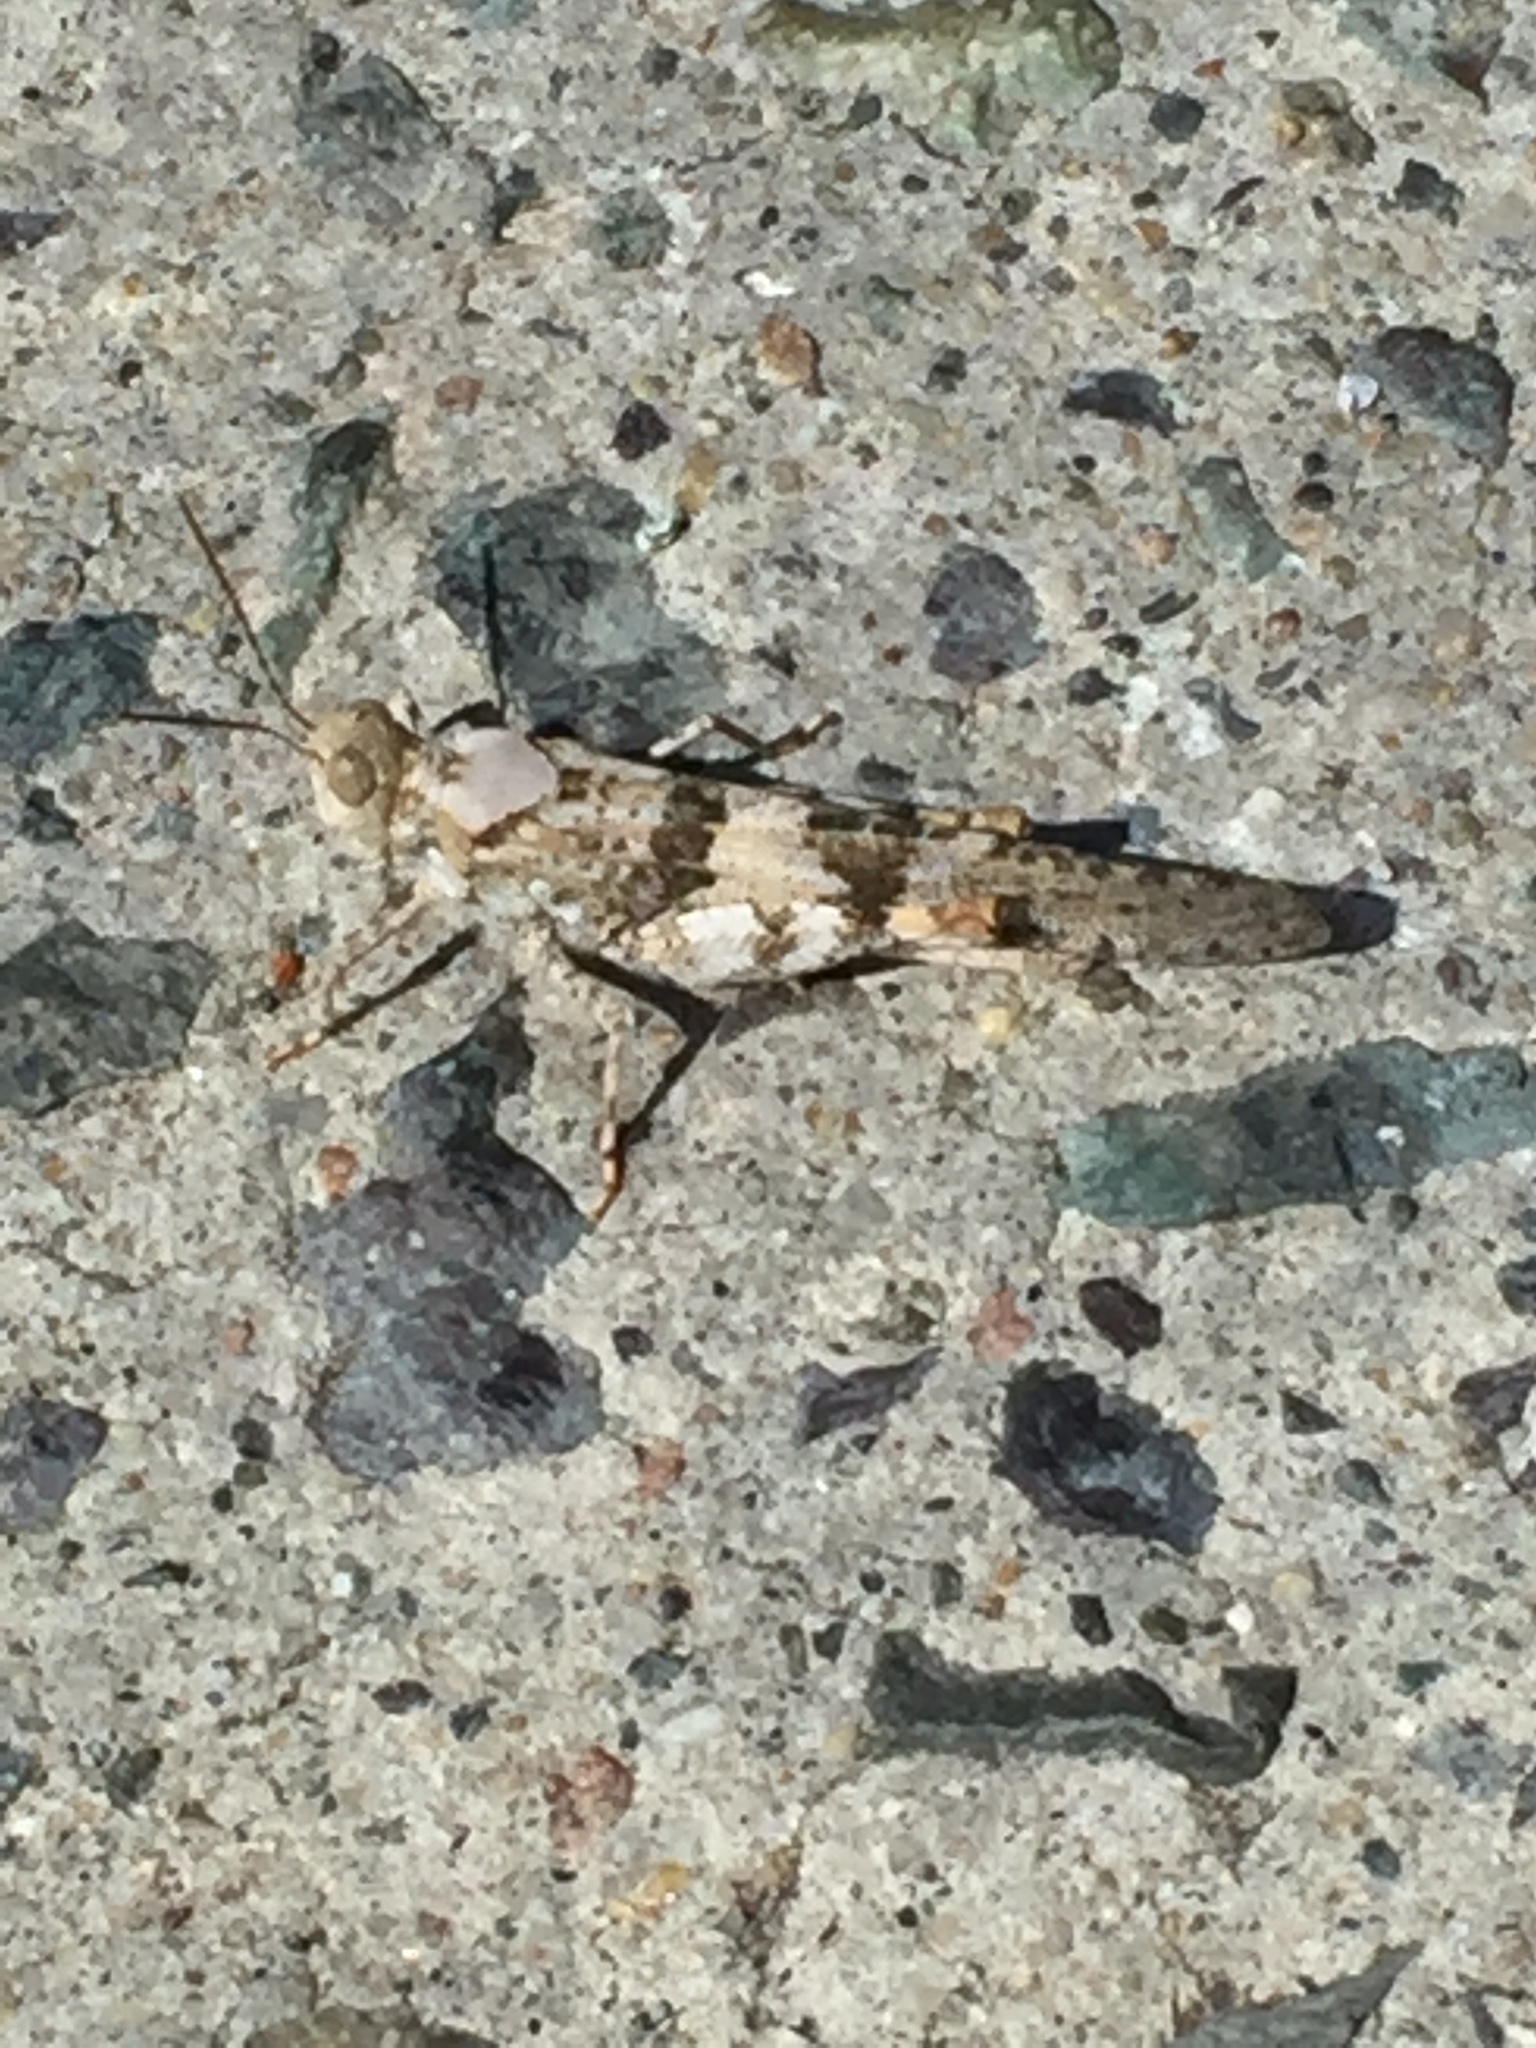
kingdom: Animalia
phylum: Arthropoda
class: Insecta
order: Orthoptera
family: Acrididae
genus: Trimerotropis
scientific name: Trimerotropis pallidipennis
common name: Pallid-winged grasshopper
